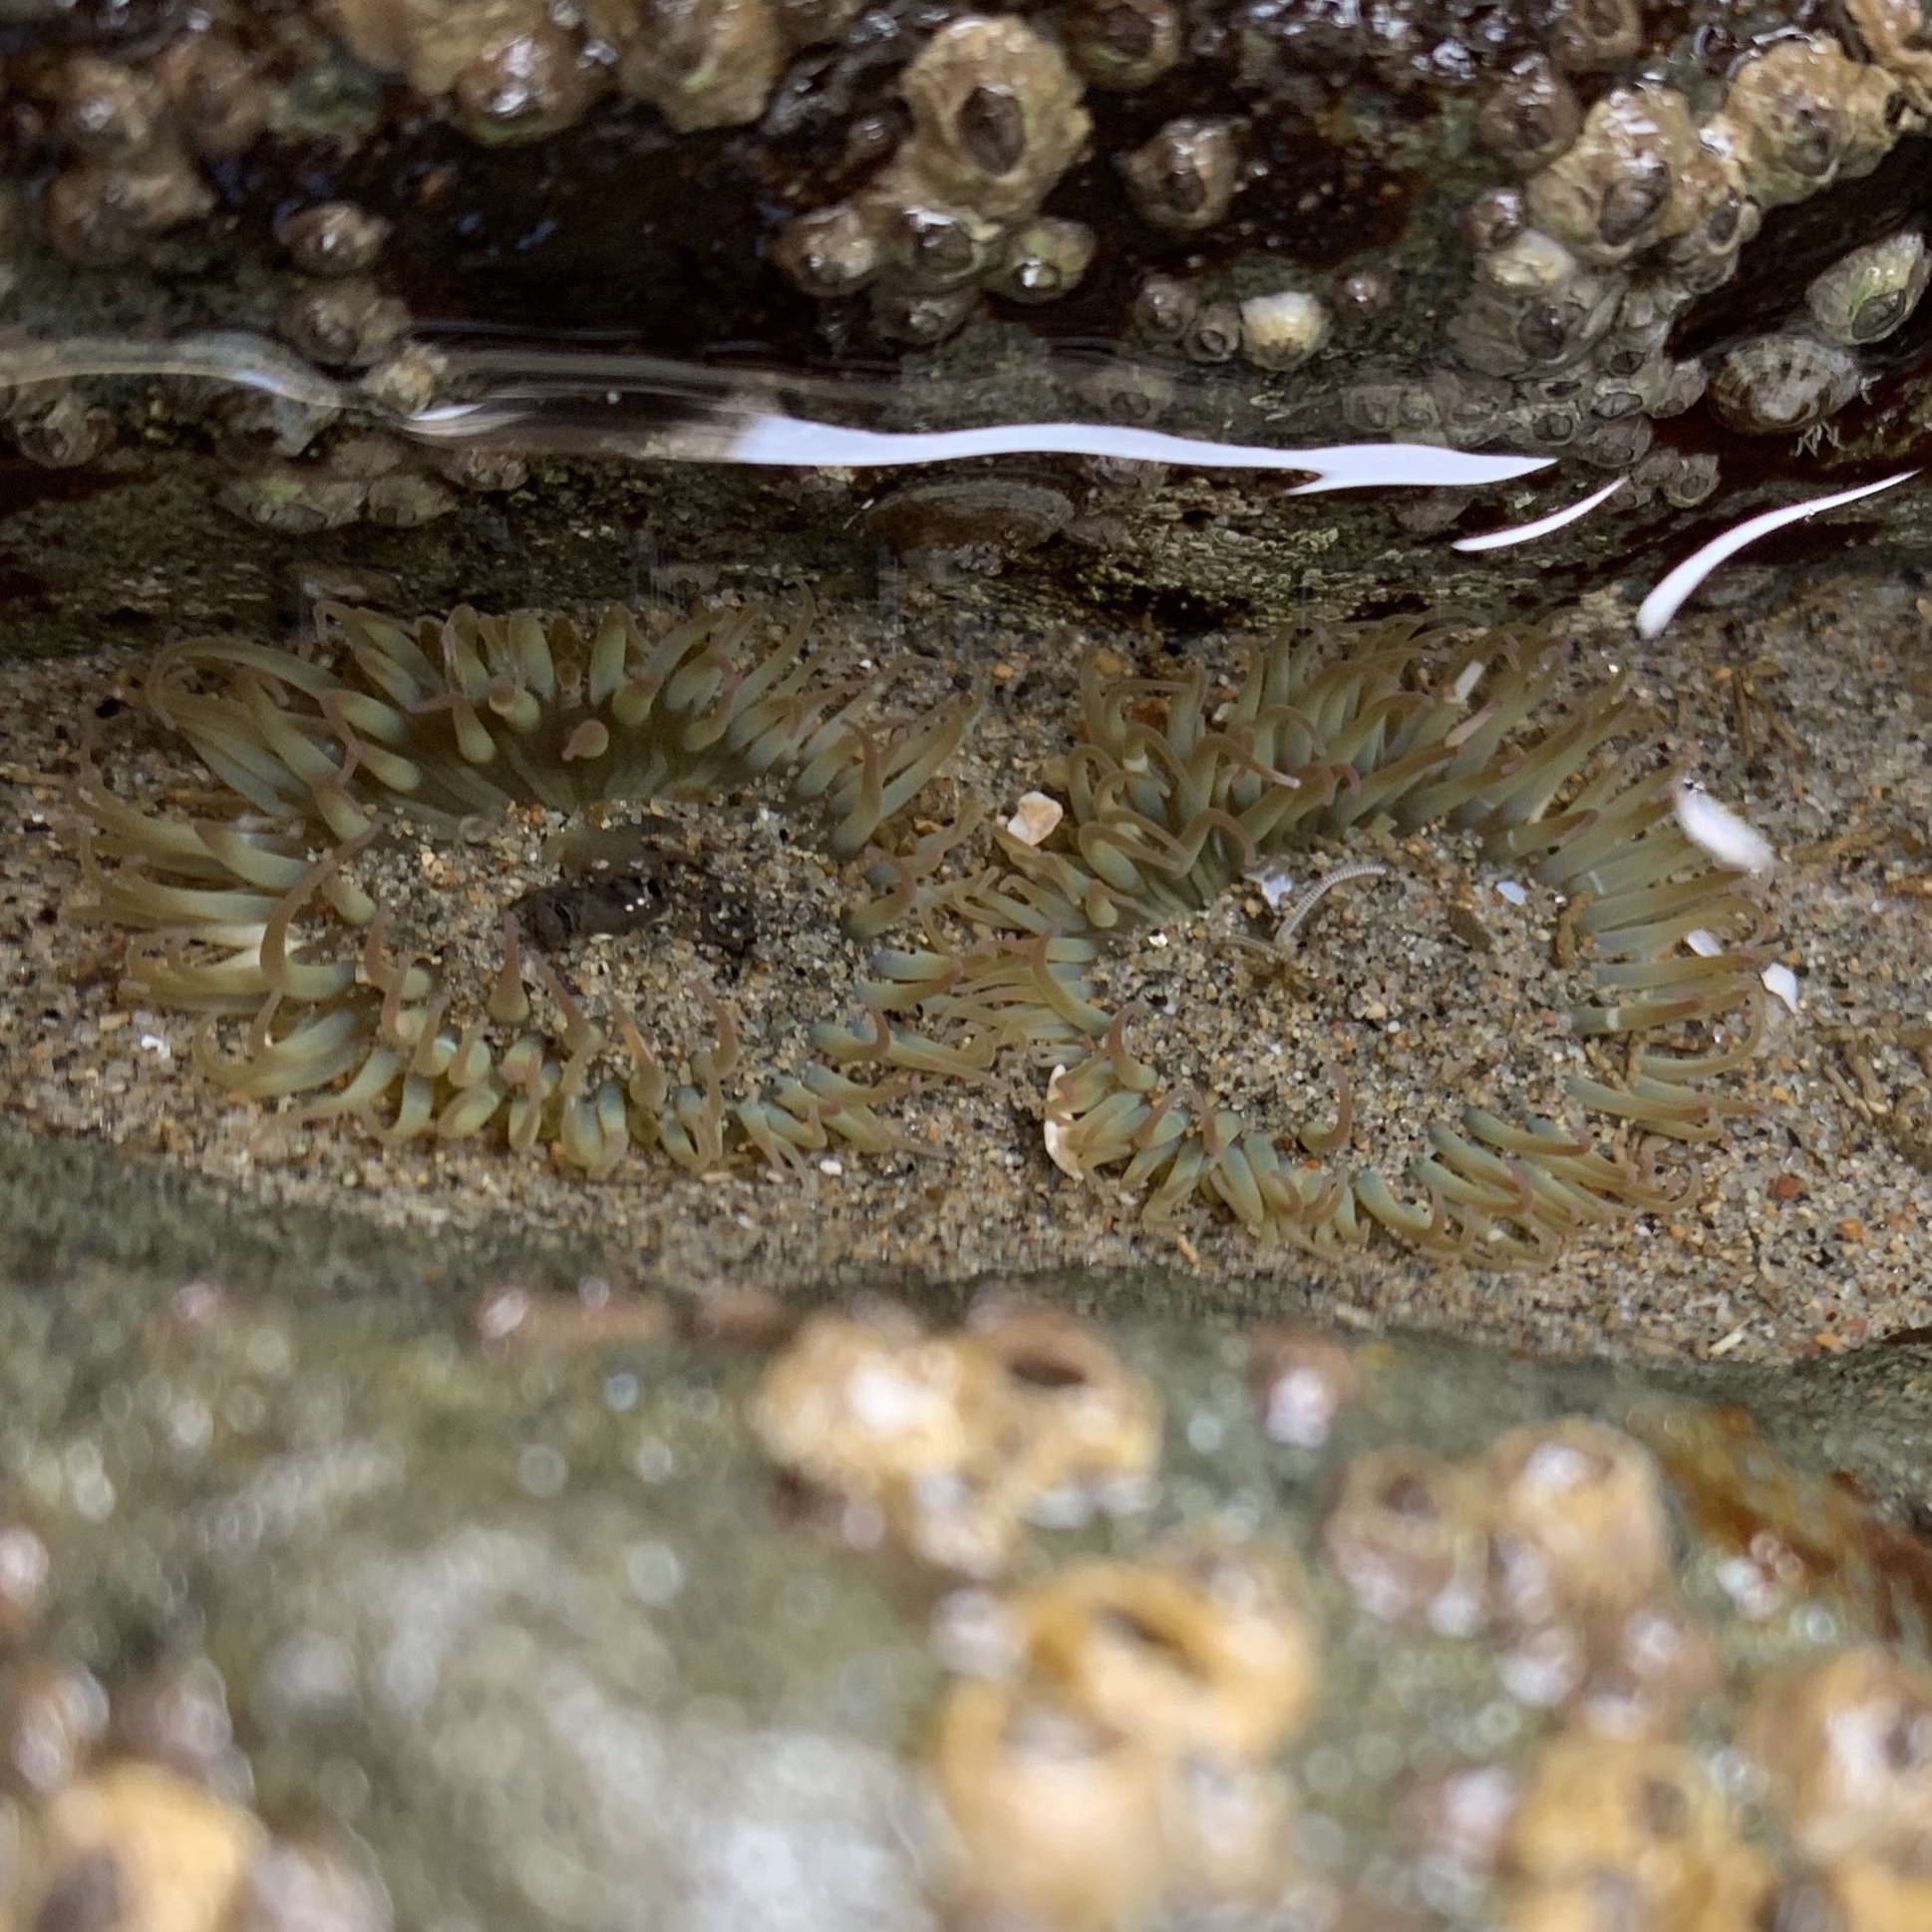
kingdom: Animalia
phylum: Cnidaria
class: Anthozoa
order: Actiniaria
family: Actiniidae
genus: Anthopleura
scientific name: Anthopleura elegantissima
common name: Clonal anemone
